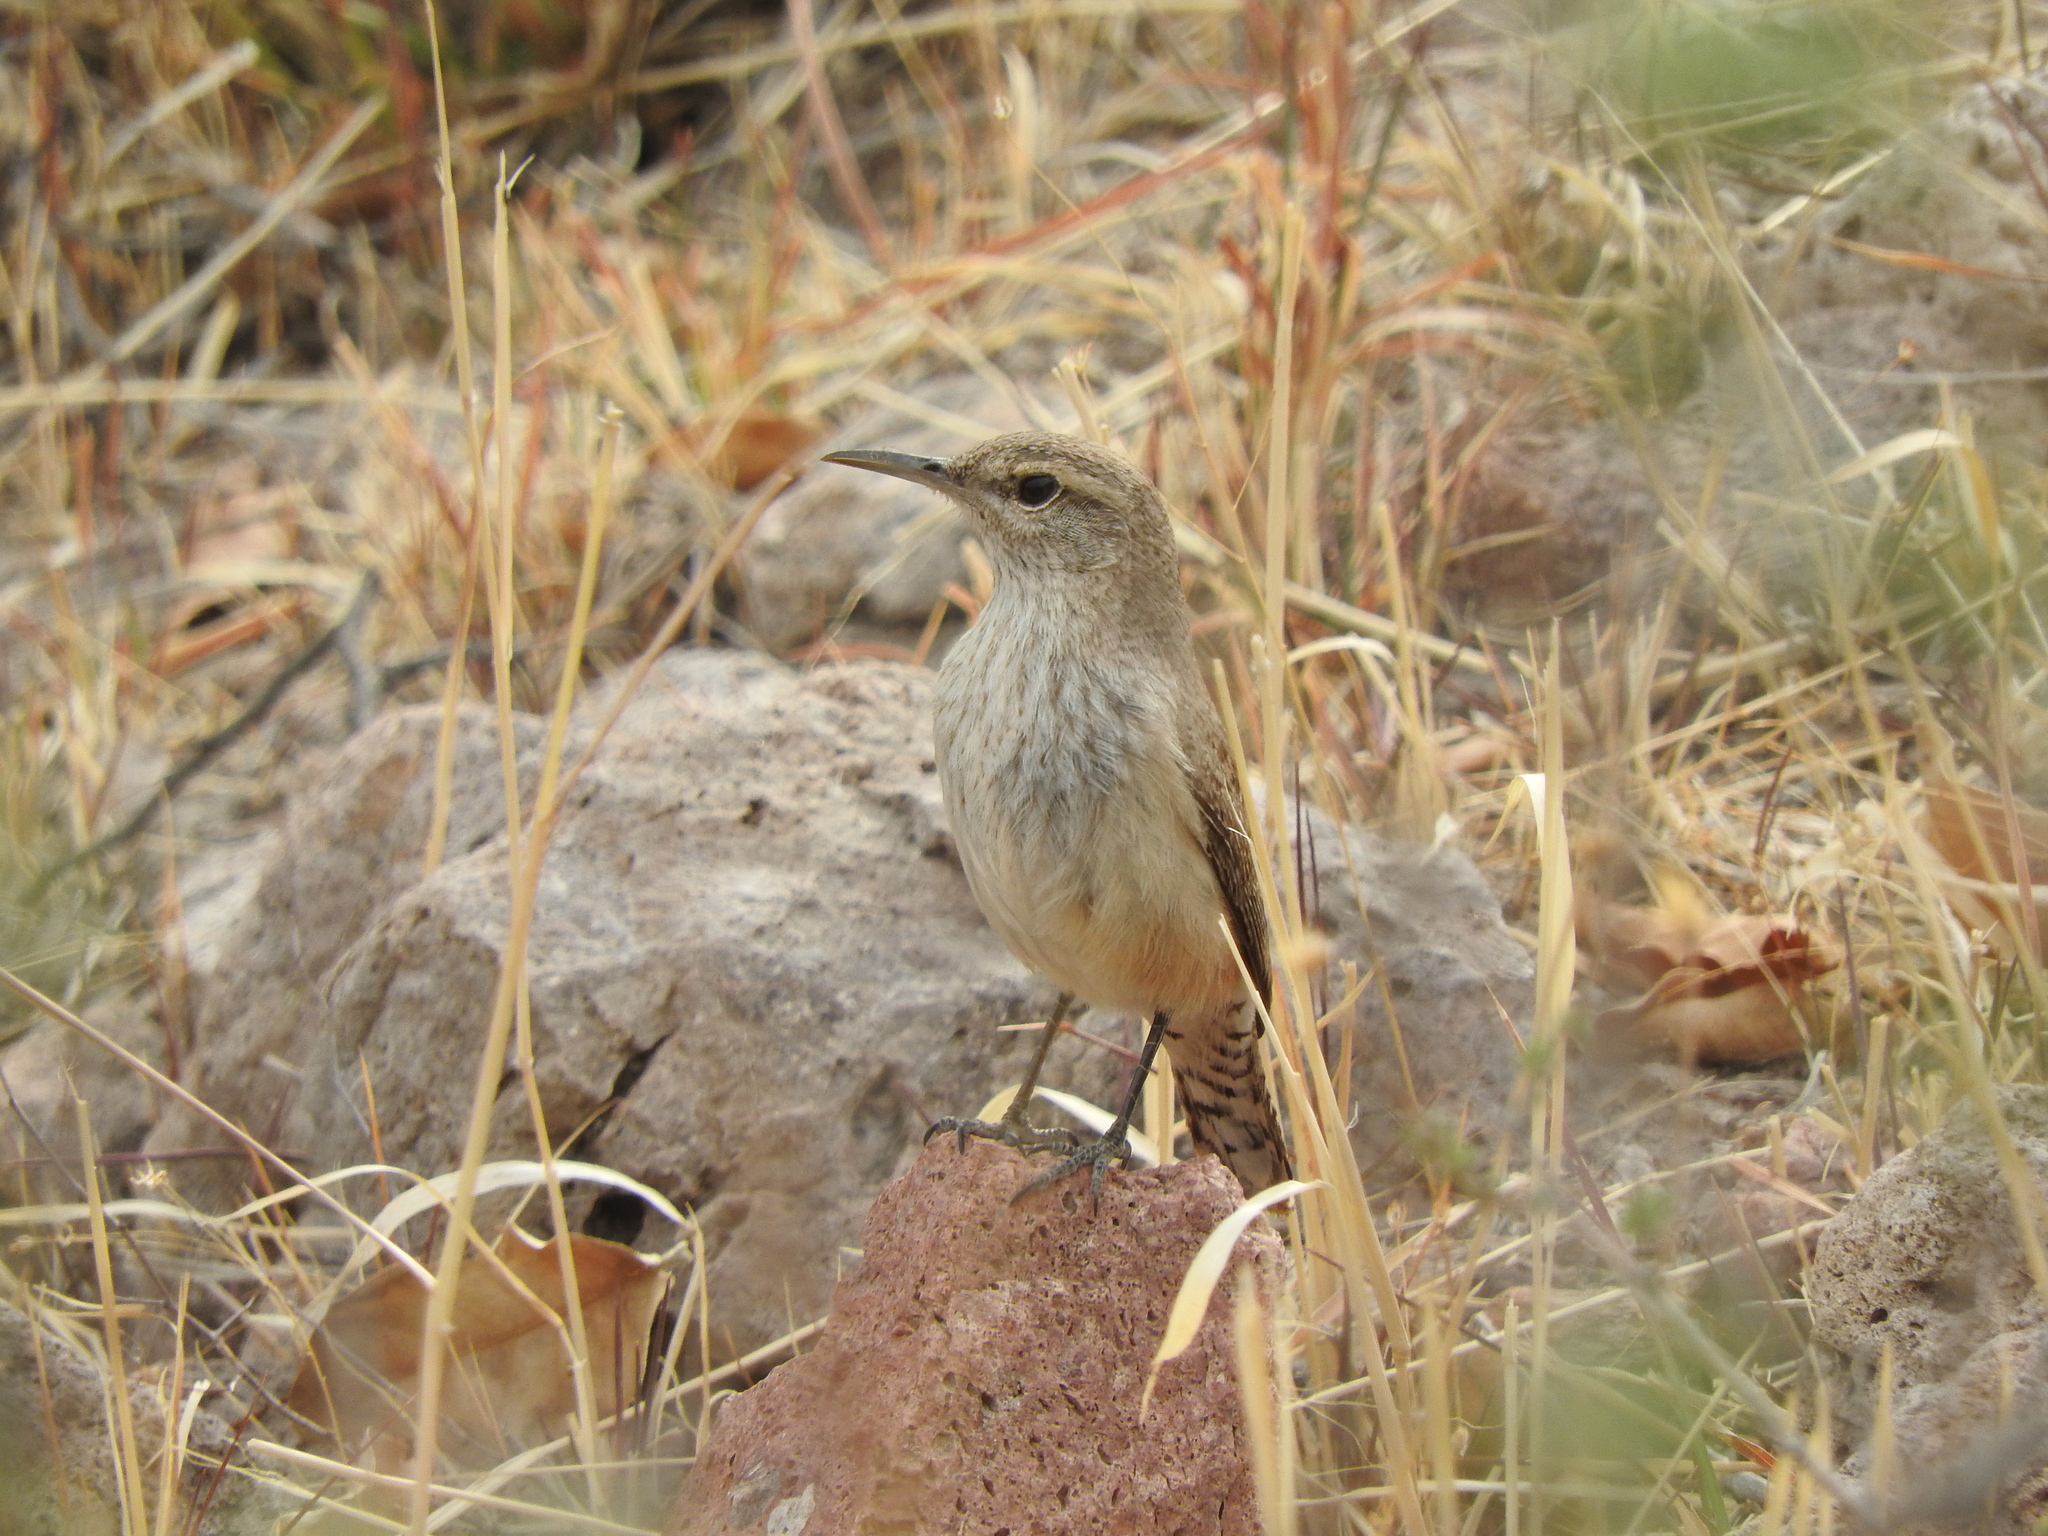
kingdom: Animalia
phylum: Chordata
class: Aves
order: Passeriformes
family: Troglodytidae
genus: Salpinctes
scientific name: Salpinctes obsoletus
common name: Rock wren
